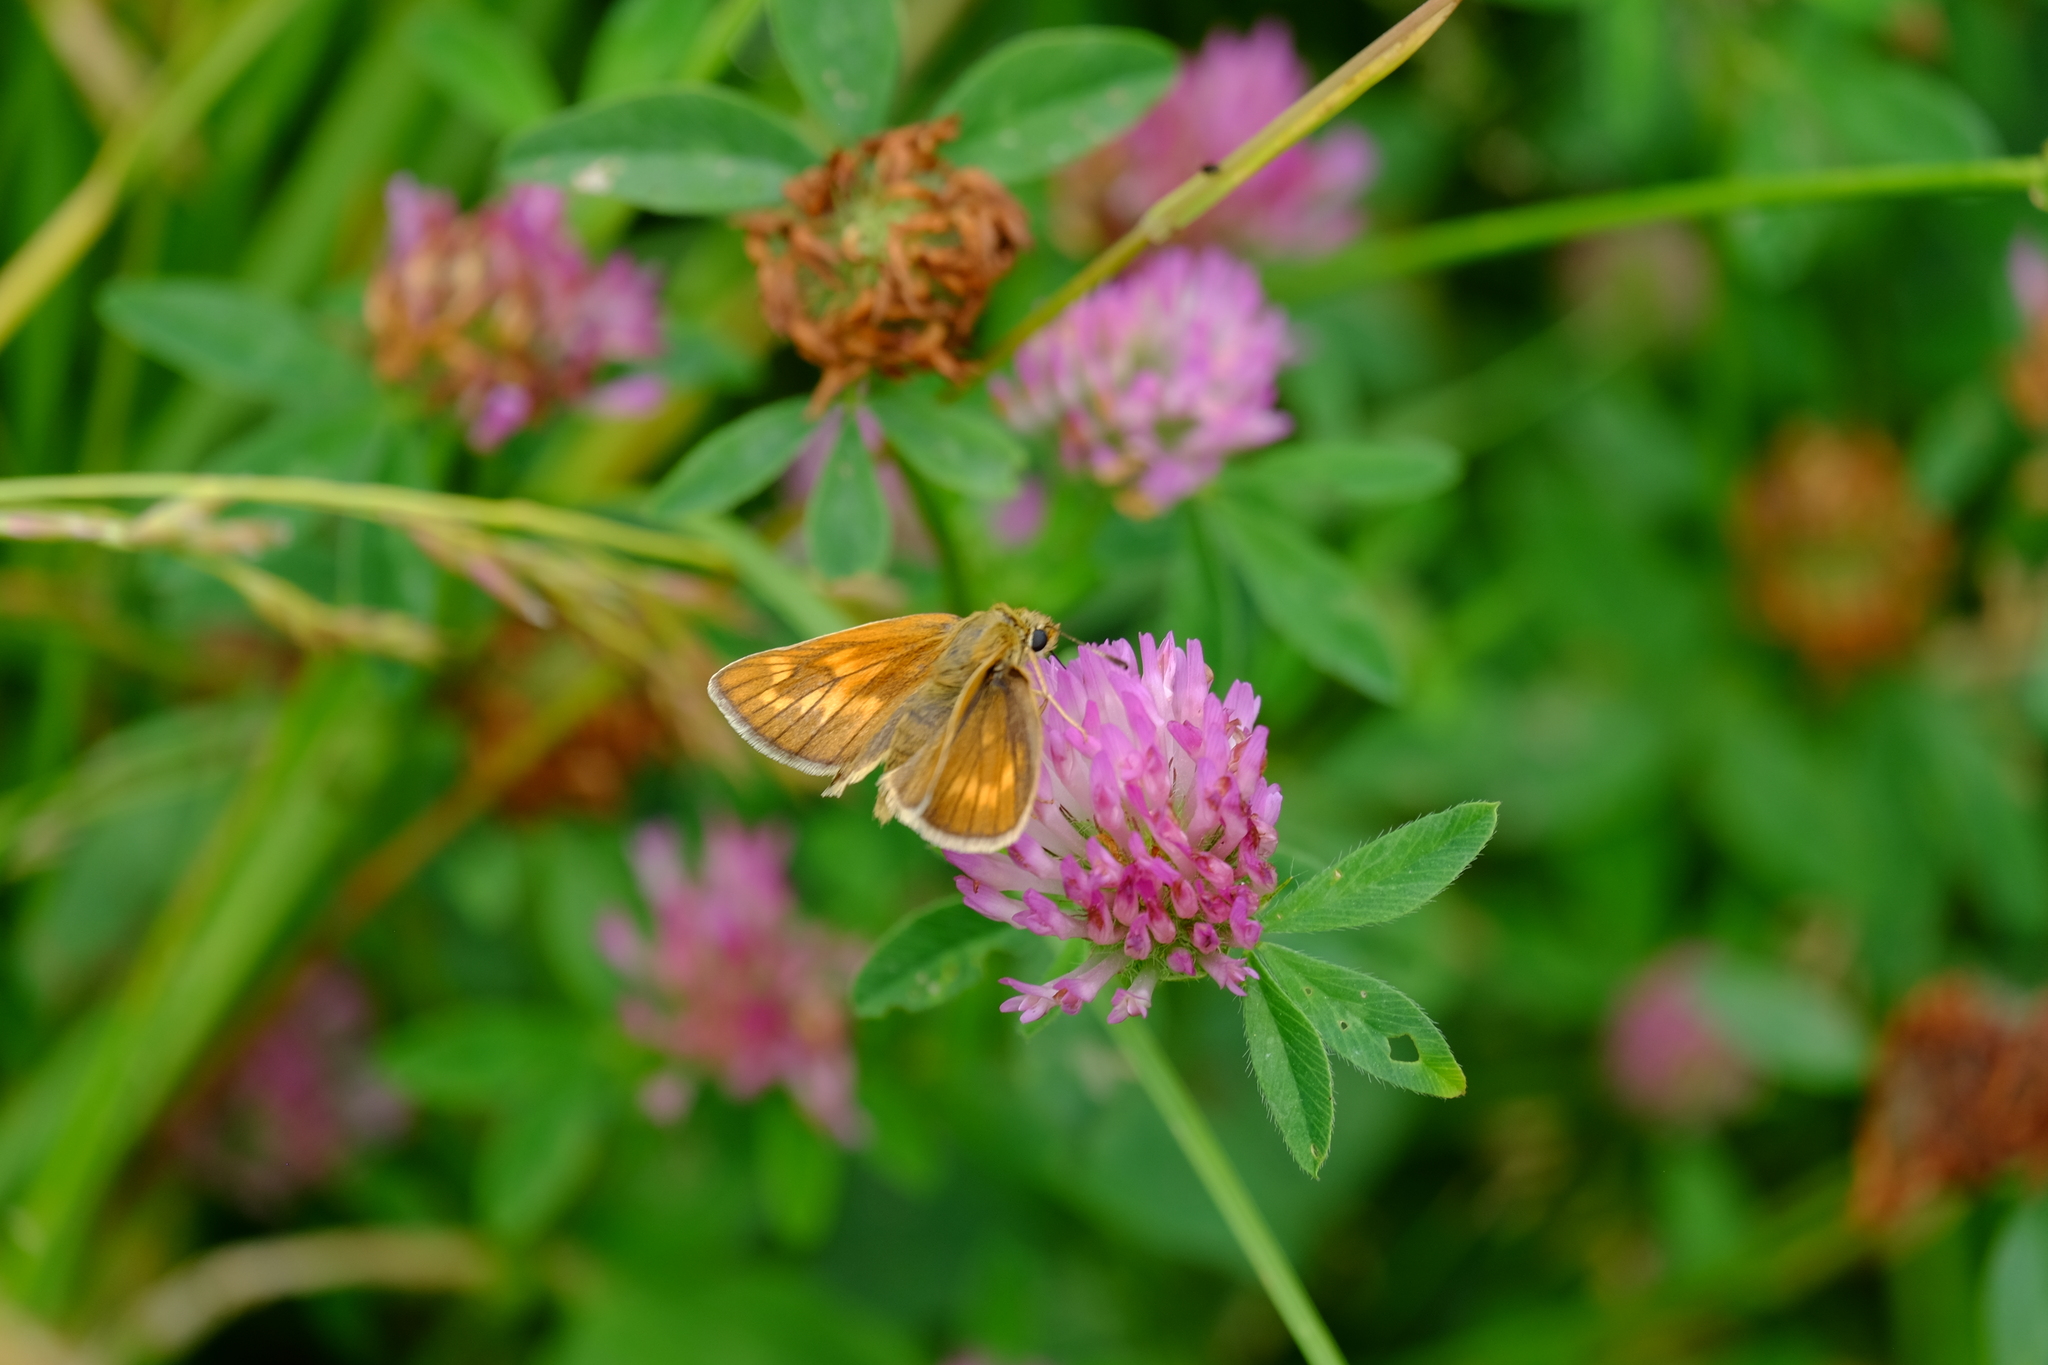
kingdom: Animalia
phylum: Arthropoda
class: Insecta
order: Lepidoptera
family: Hesperiidae
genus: Ochlodes
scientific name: Ochlodes venata
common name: Large skipper
